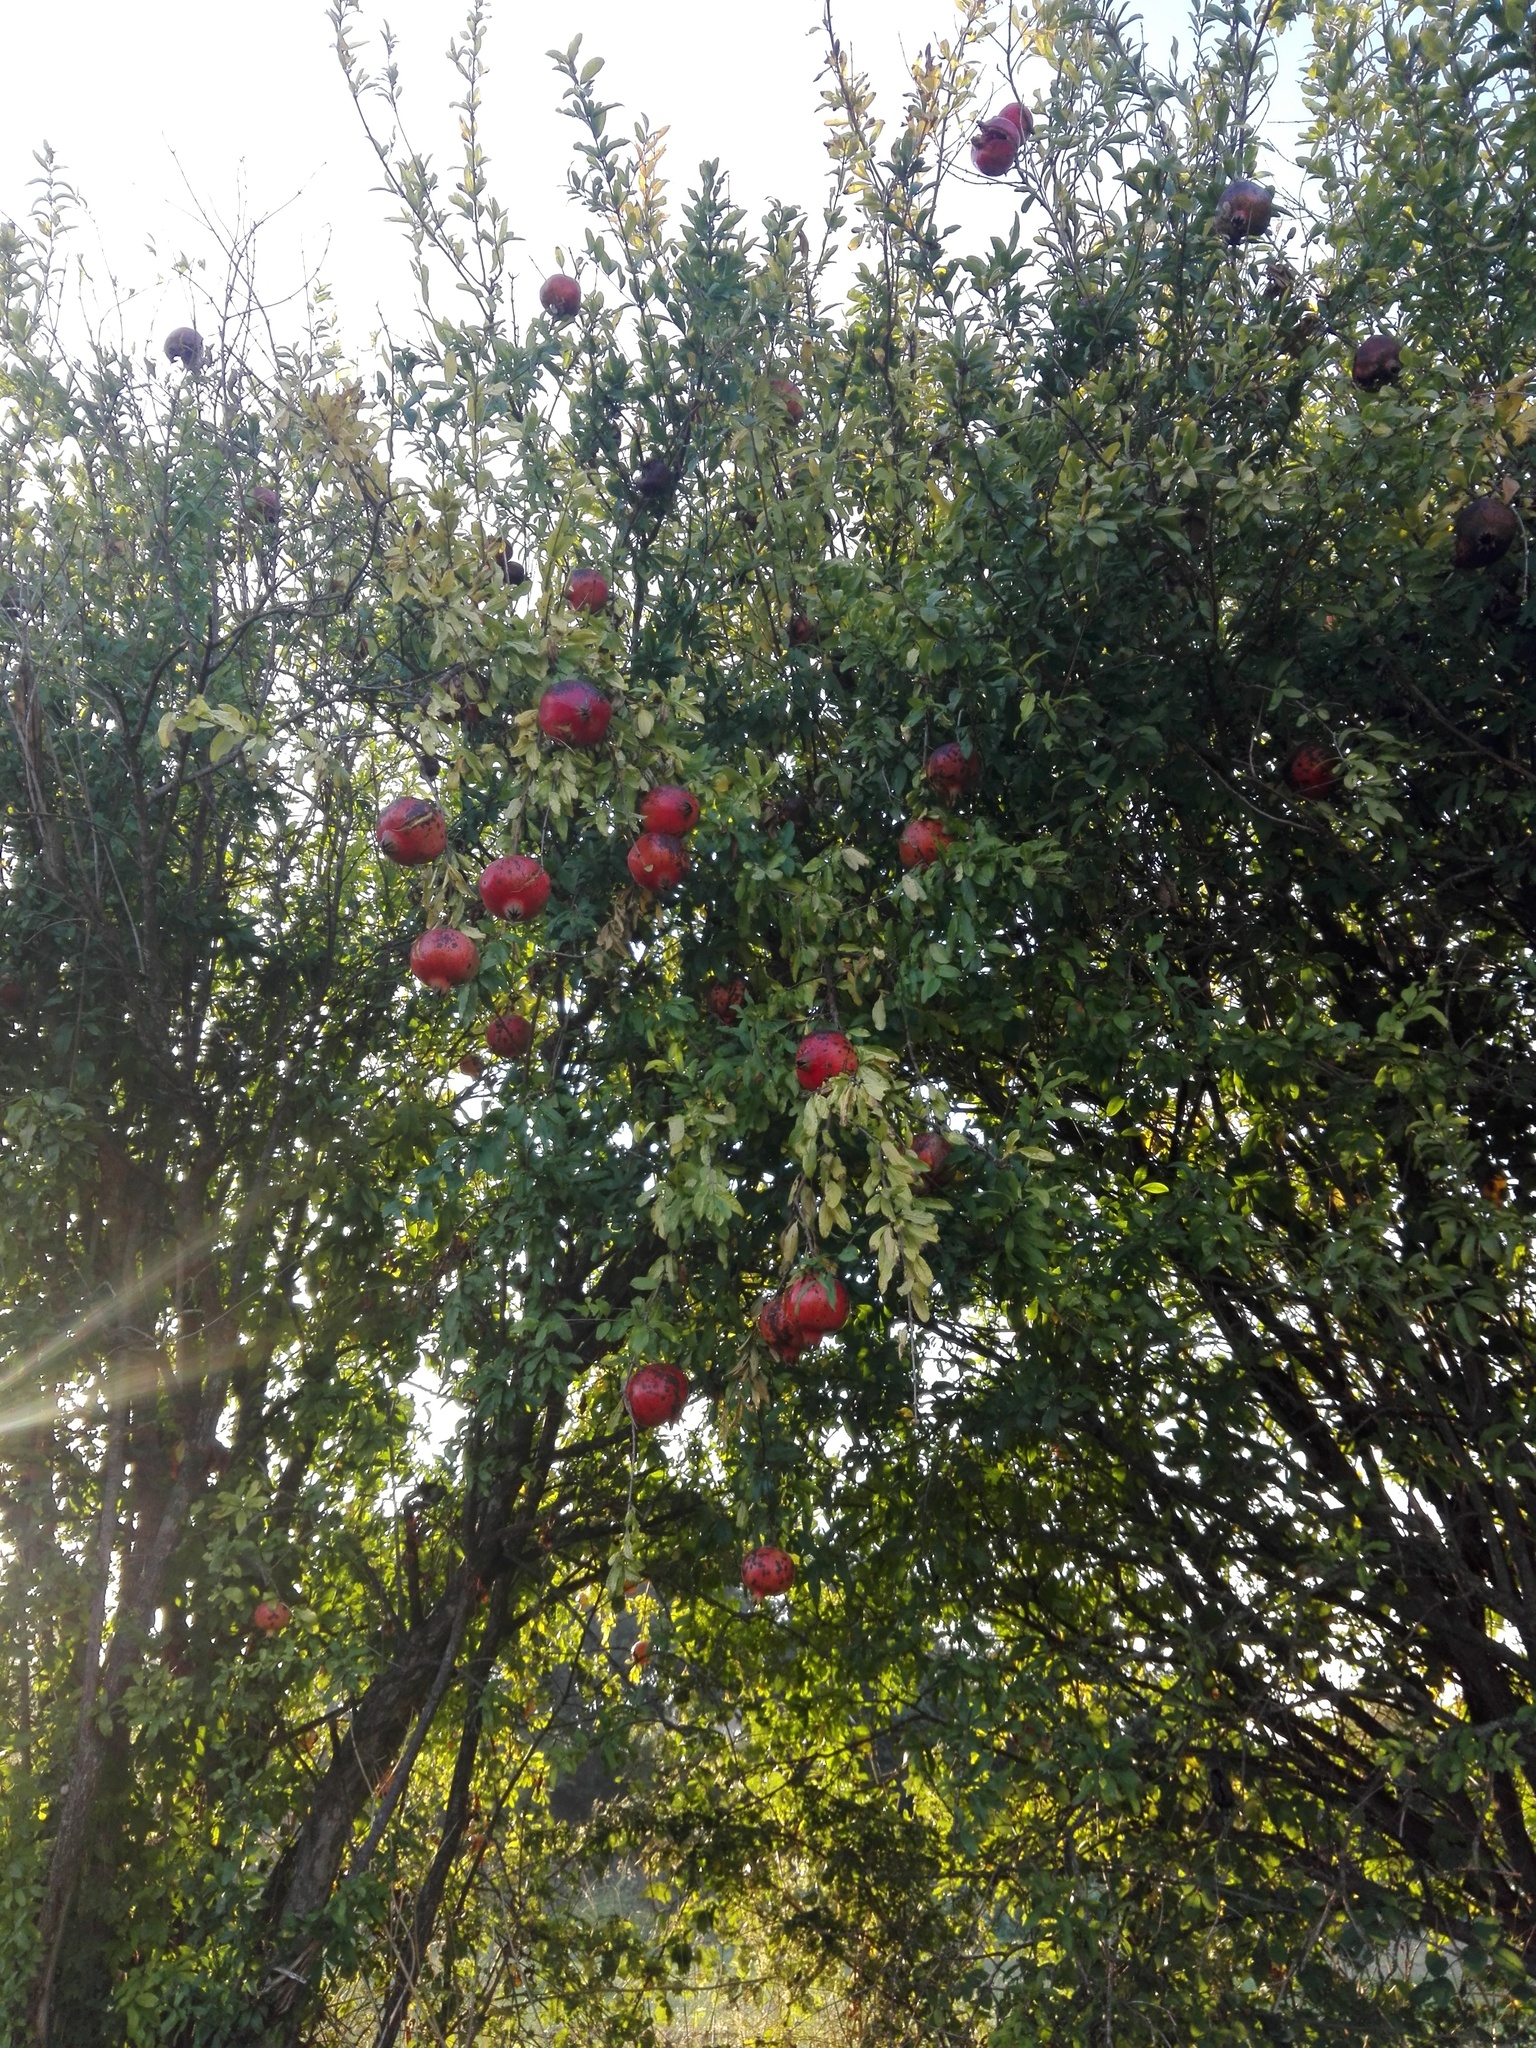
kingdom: Plantae
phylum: Tracheophyta
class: Magnoliopsida
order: Myrtales
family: Lythraceae
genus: Punica
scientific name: Punica granatum
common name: Pomegranate
